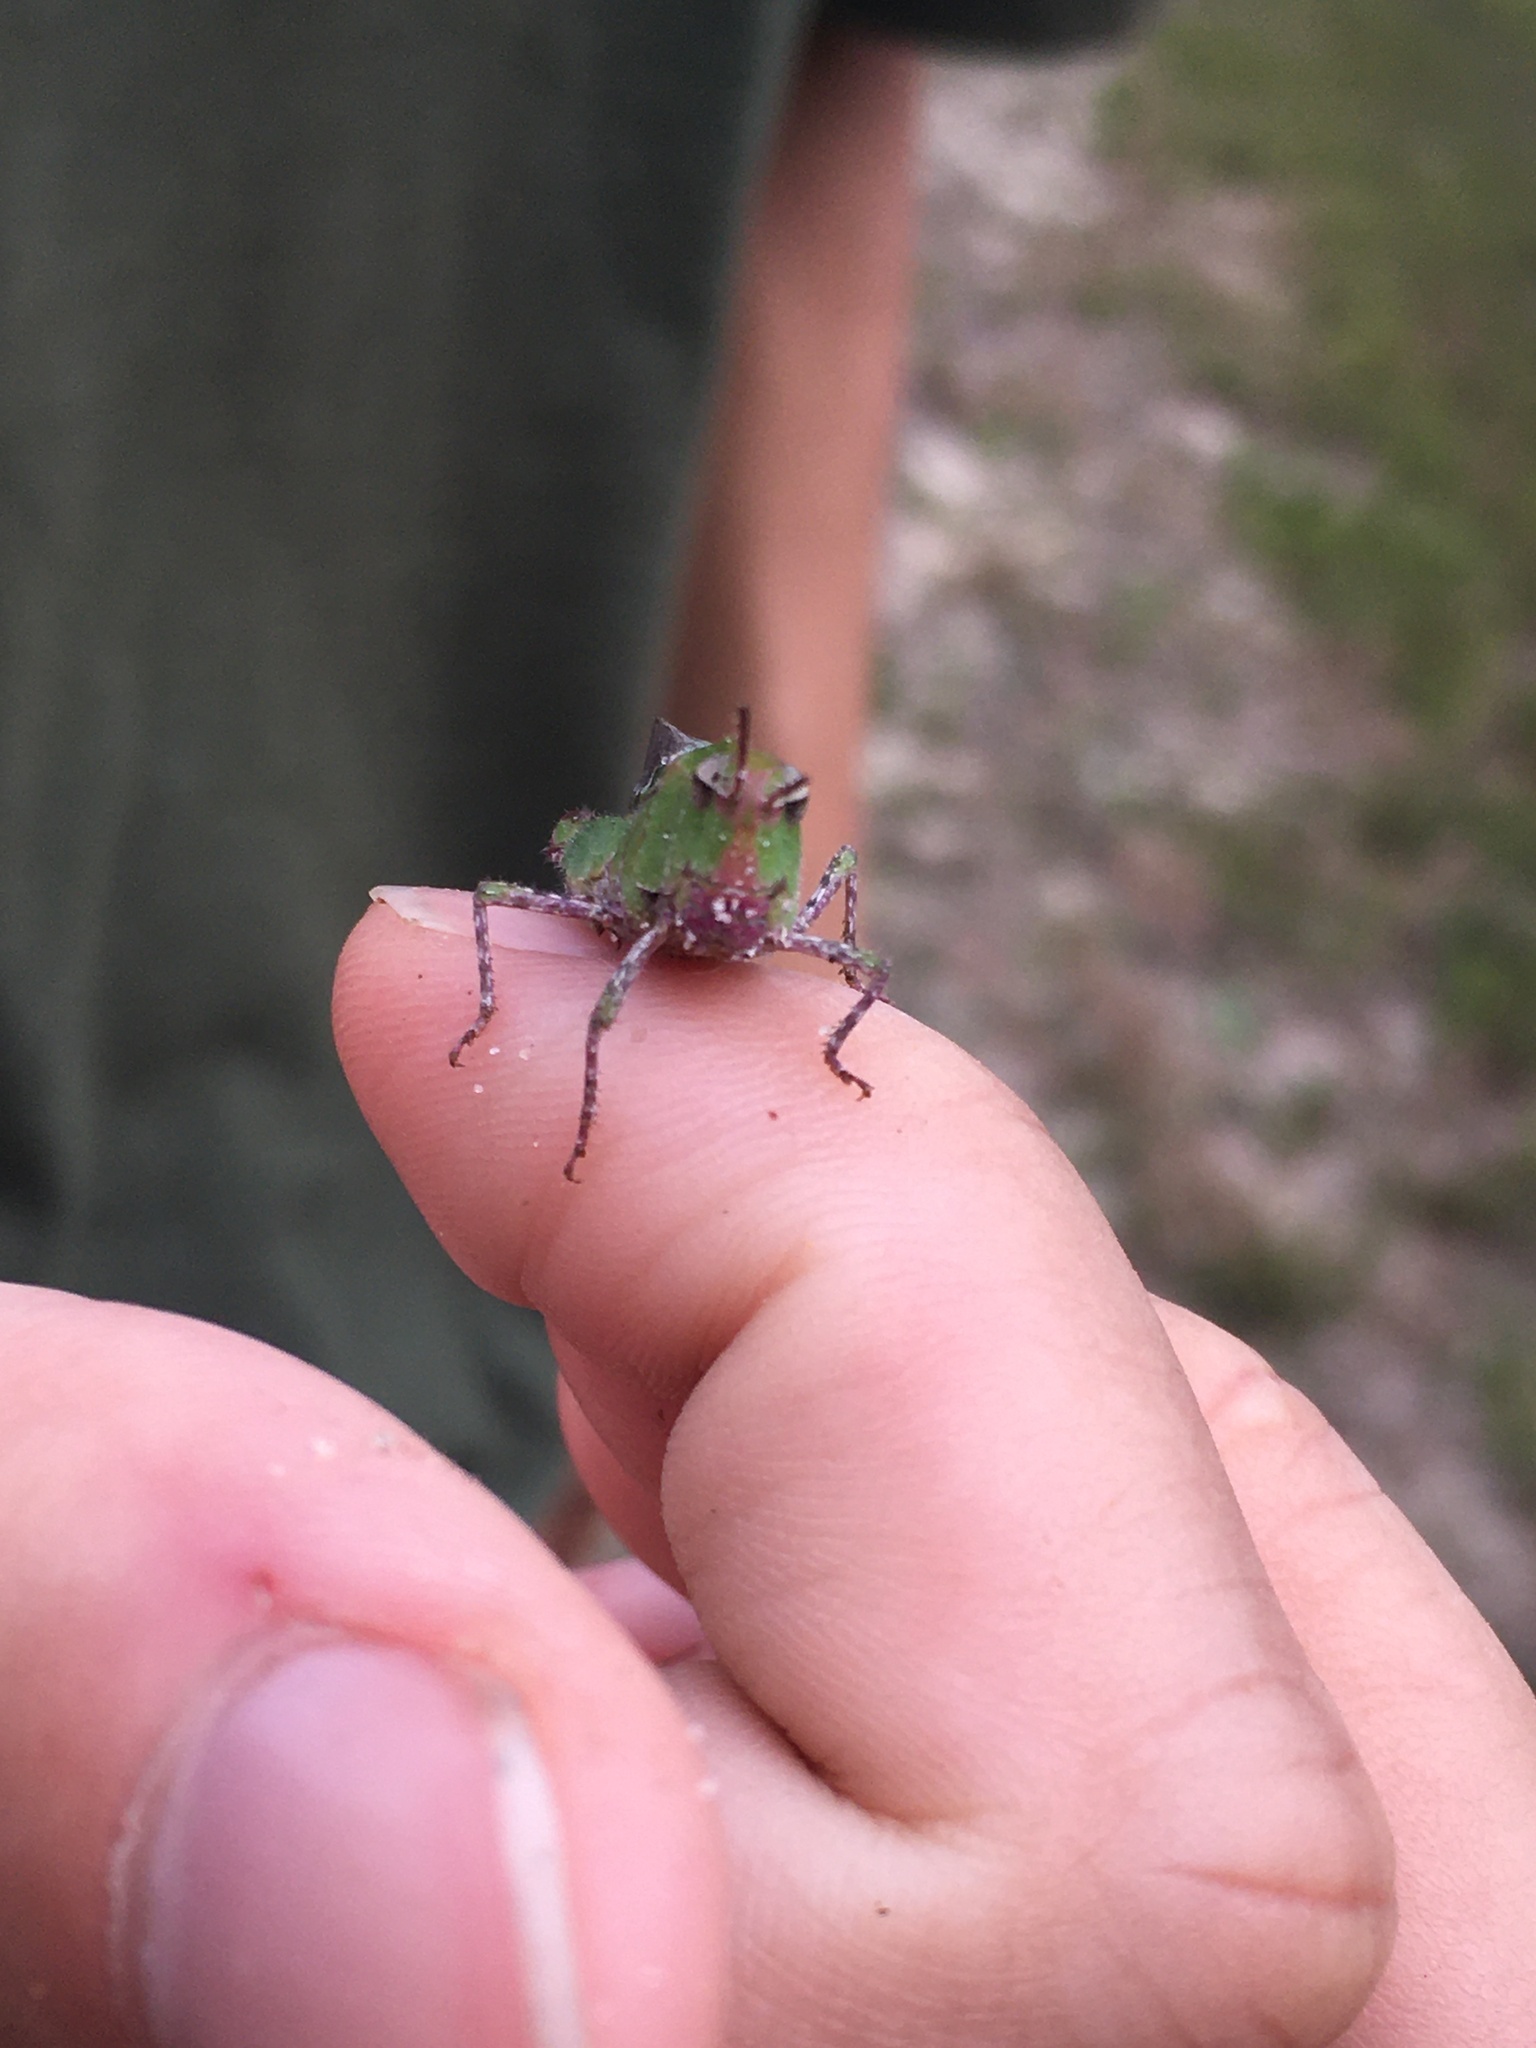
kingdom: Animalia
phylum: Arthropoda
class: Insecta
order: Orthoptera
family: Acrididae
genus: Chortophaga
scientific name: Chortophaga australior
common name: Southern green-striped grasshopper
